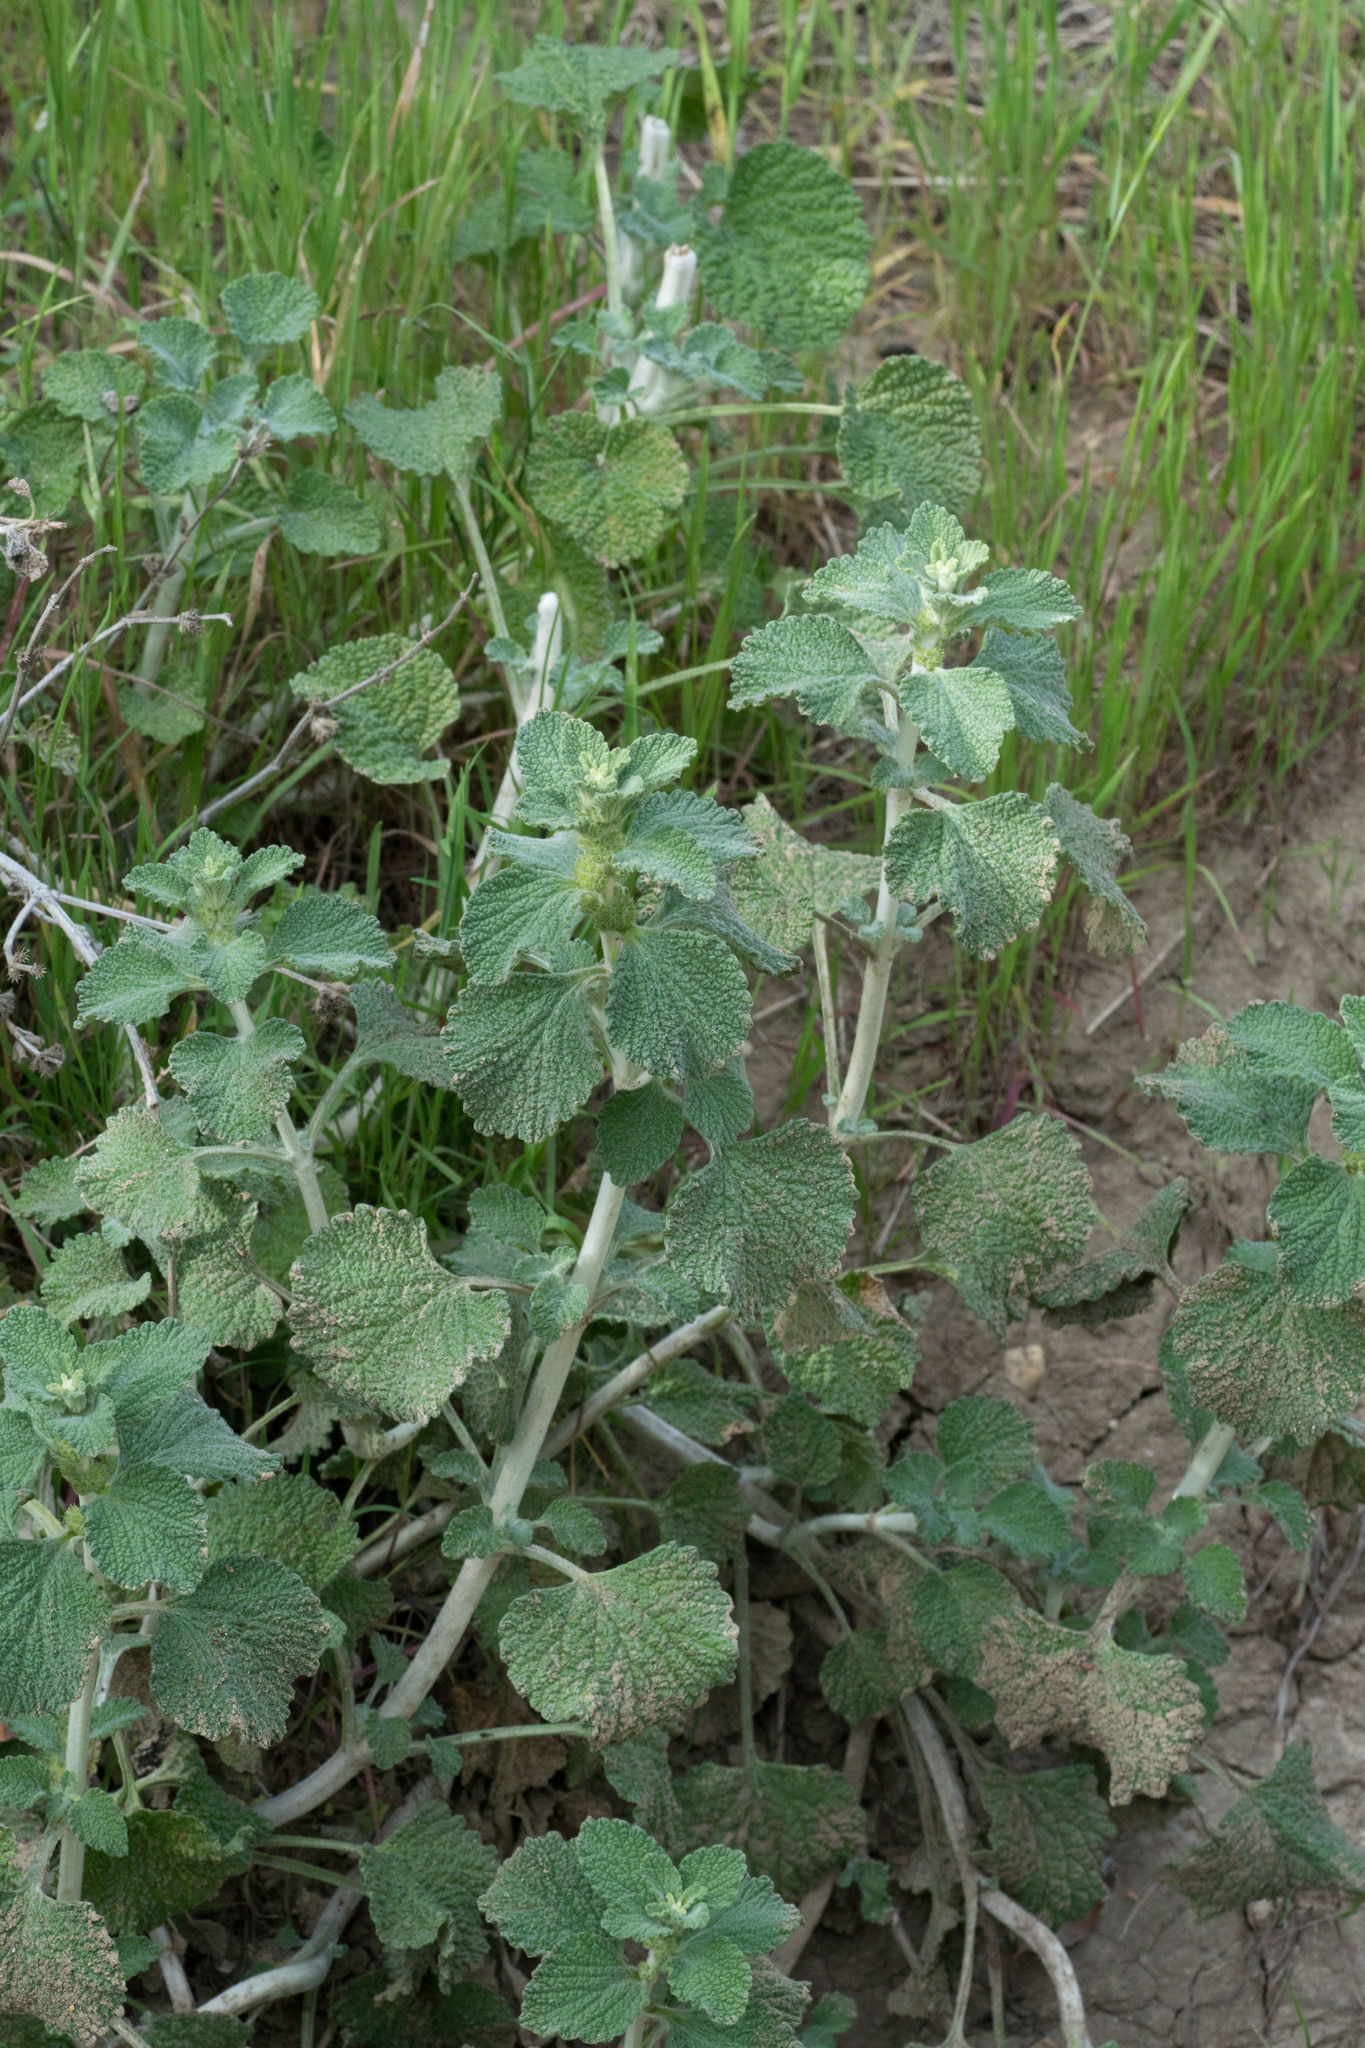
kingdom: Plantae
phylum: Tracheophyta
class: Magnoliopsida
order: Lamiales
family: Lamiaceae
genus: Marrubium
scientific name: Marrubium vulgare
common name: Horehound
